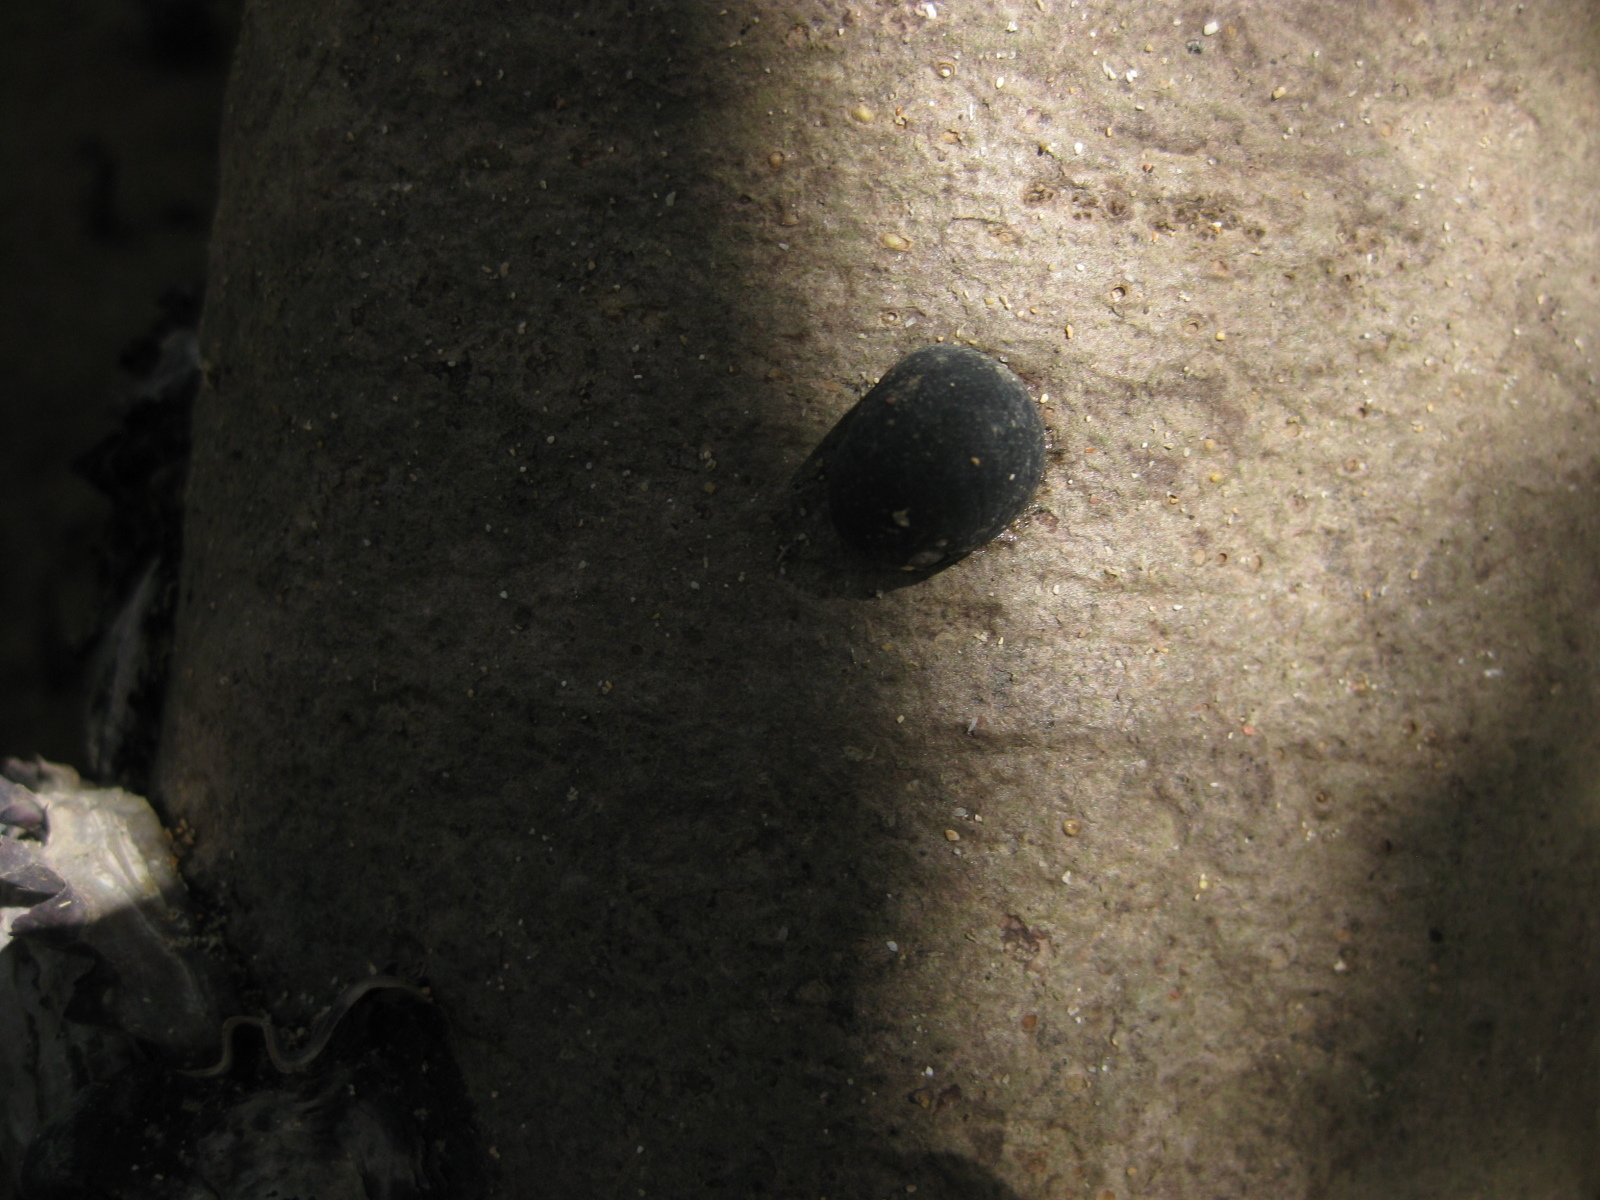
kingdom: Animalia
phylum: Mollusca
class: Gastropoda
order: Cycloneritida
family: Neritidae
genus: Nerita
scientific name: Nerita melanotragus
